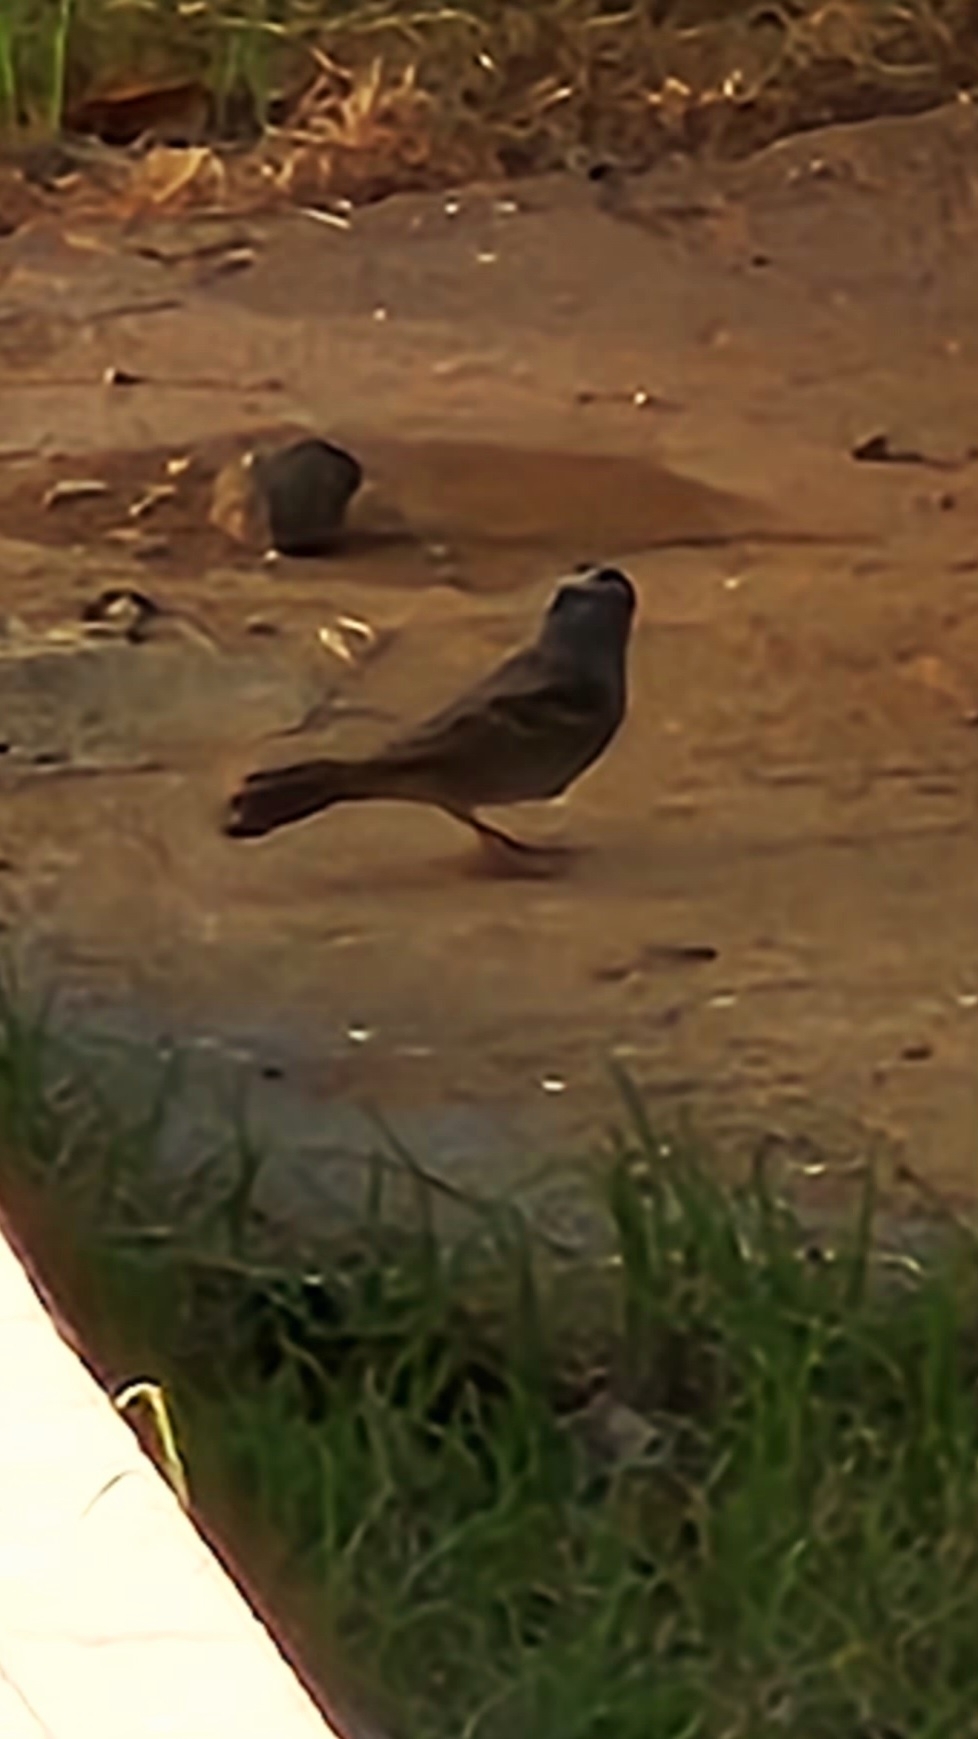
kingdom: Animalia
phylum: Chordata
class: Aves
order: Passeriformes
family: Passerellidae
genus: Zonotrichia
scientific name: Zonotrichia leucophrys
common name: White-crowned sparrow
